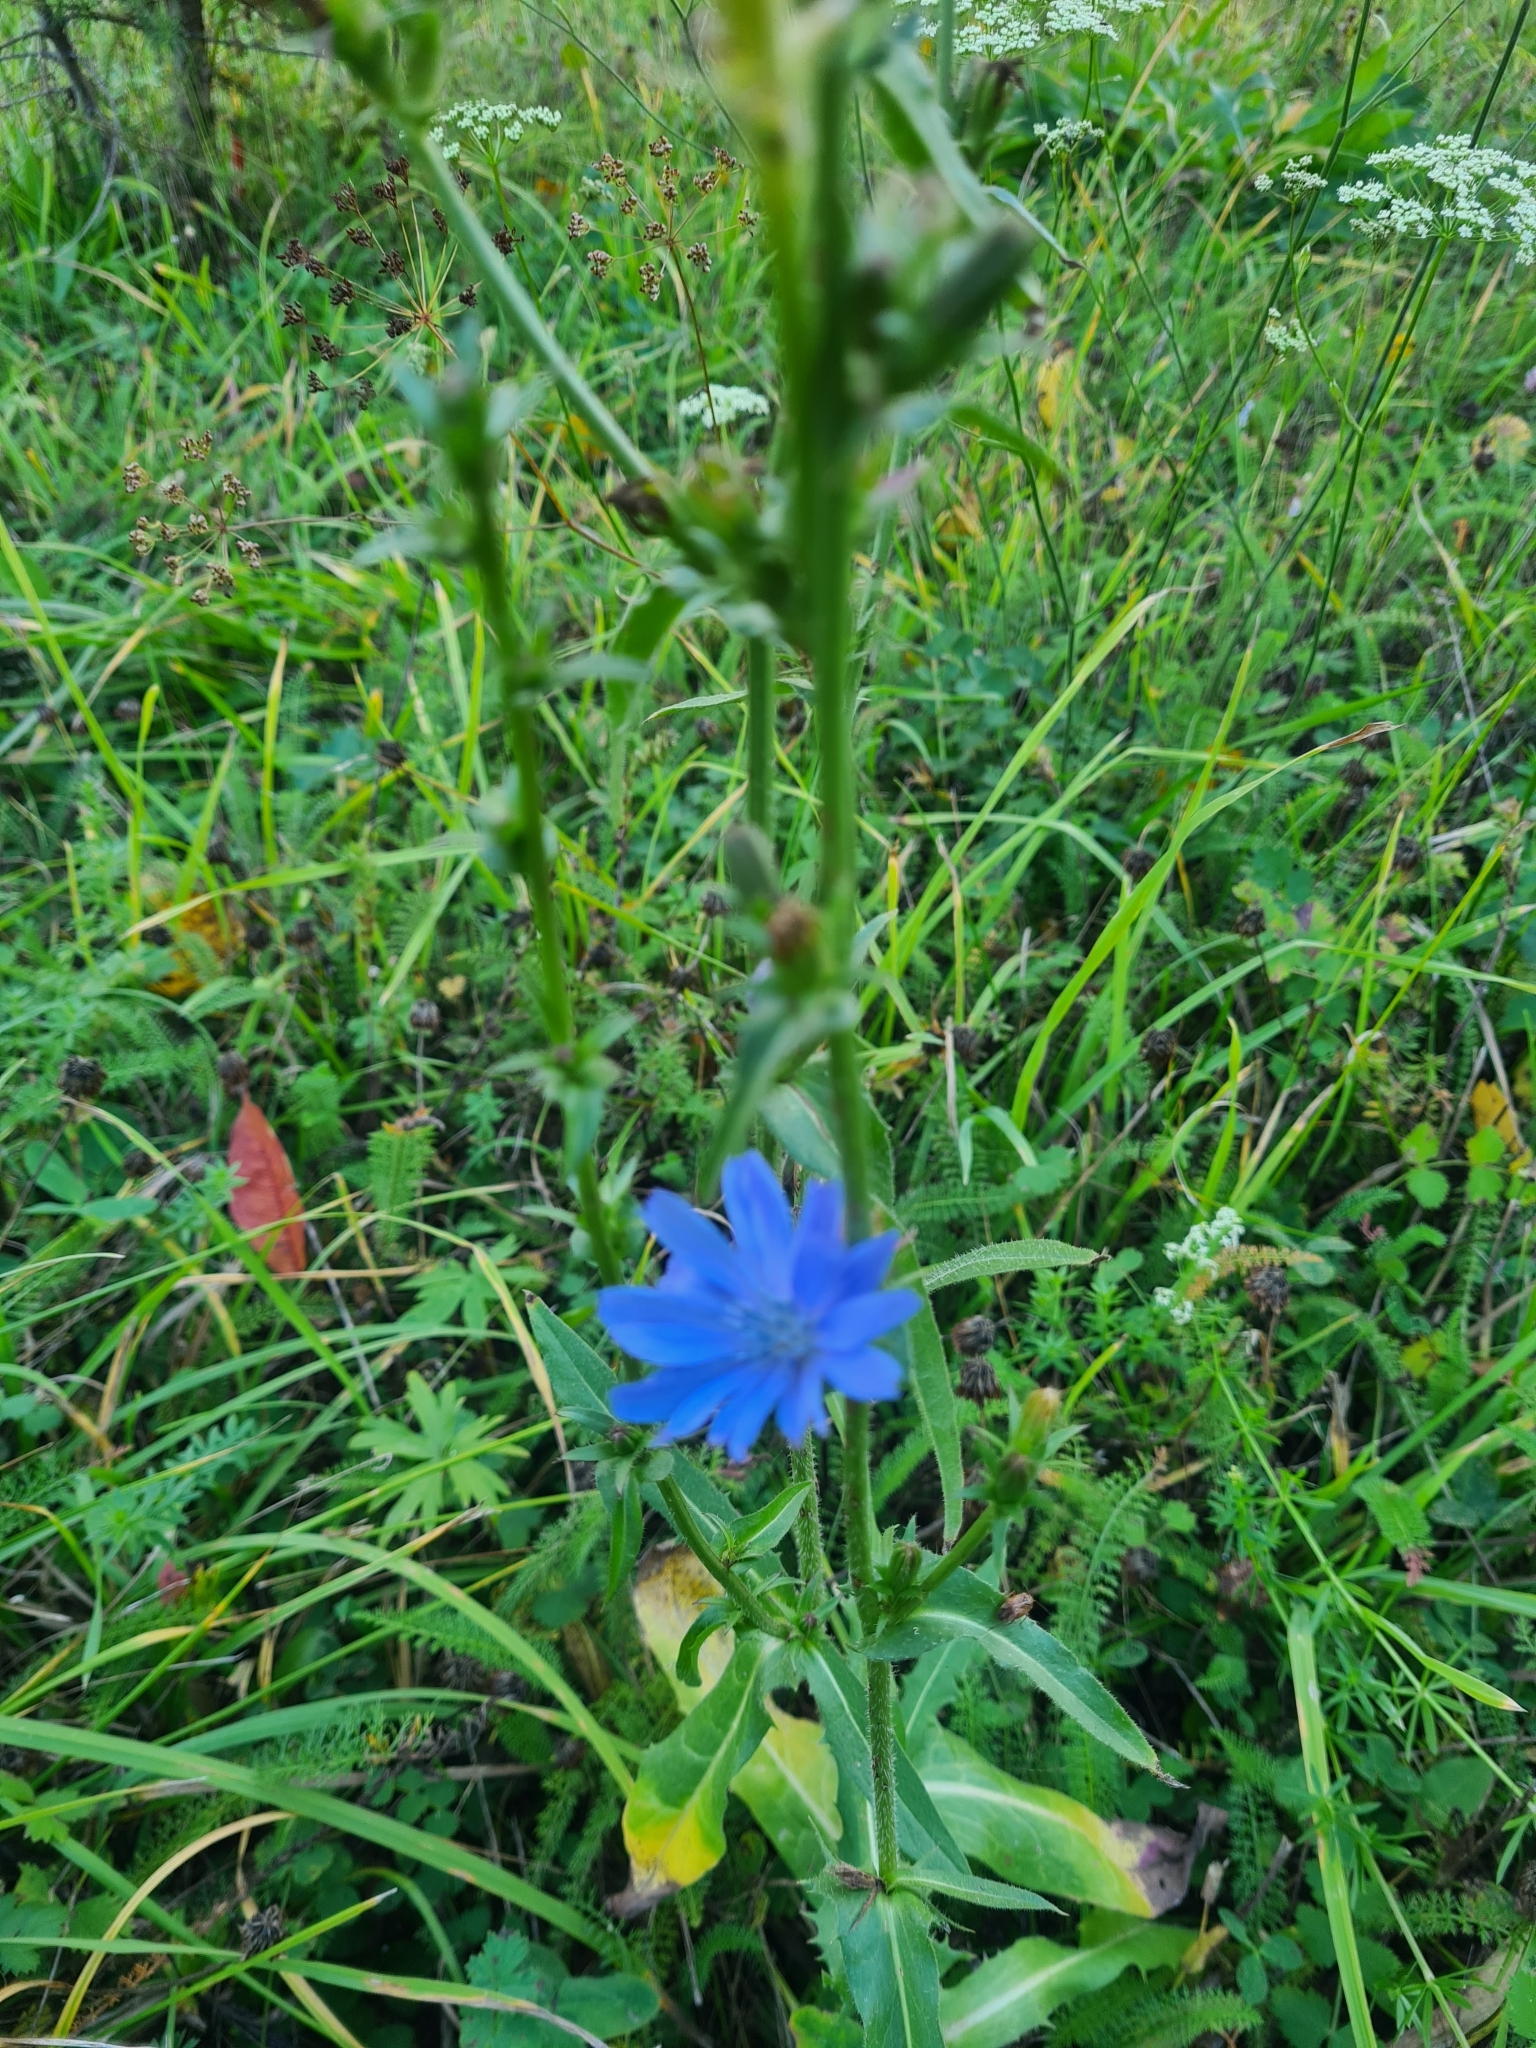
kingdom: Plantae
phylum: Tracheophyta
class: Magnoliopsida
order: Asterales
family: Asteraceae
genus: Cichorium
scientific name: Cichorium intybus
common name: Chicory
